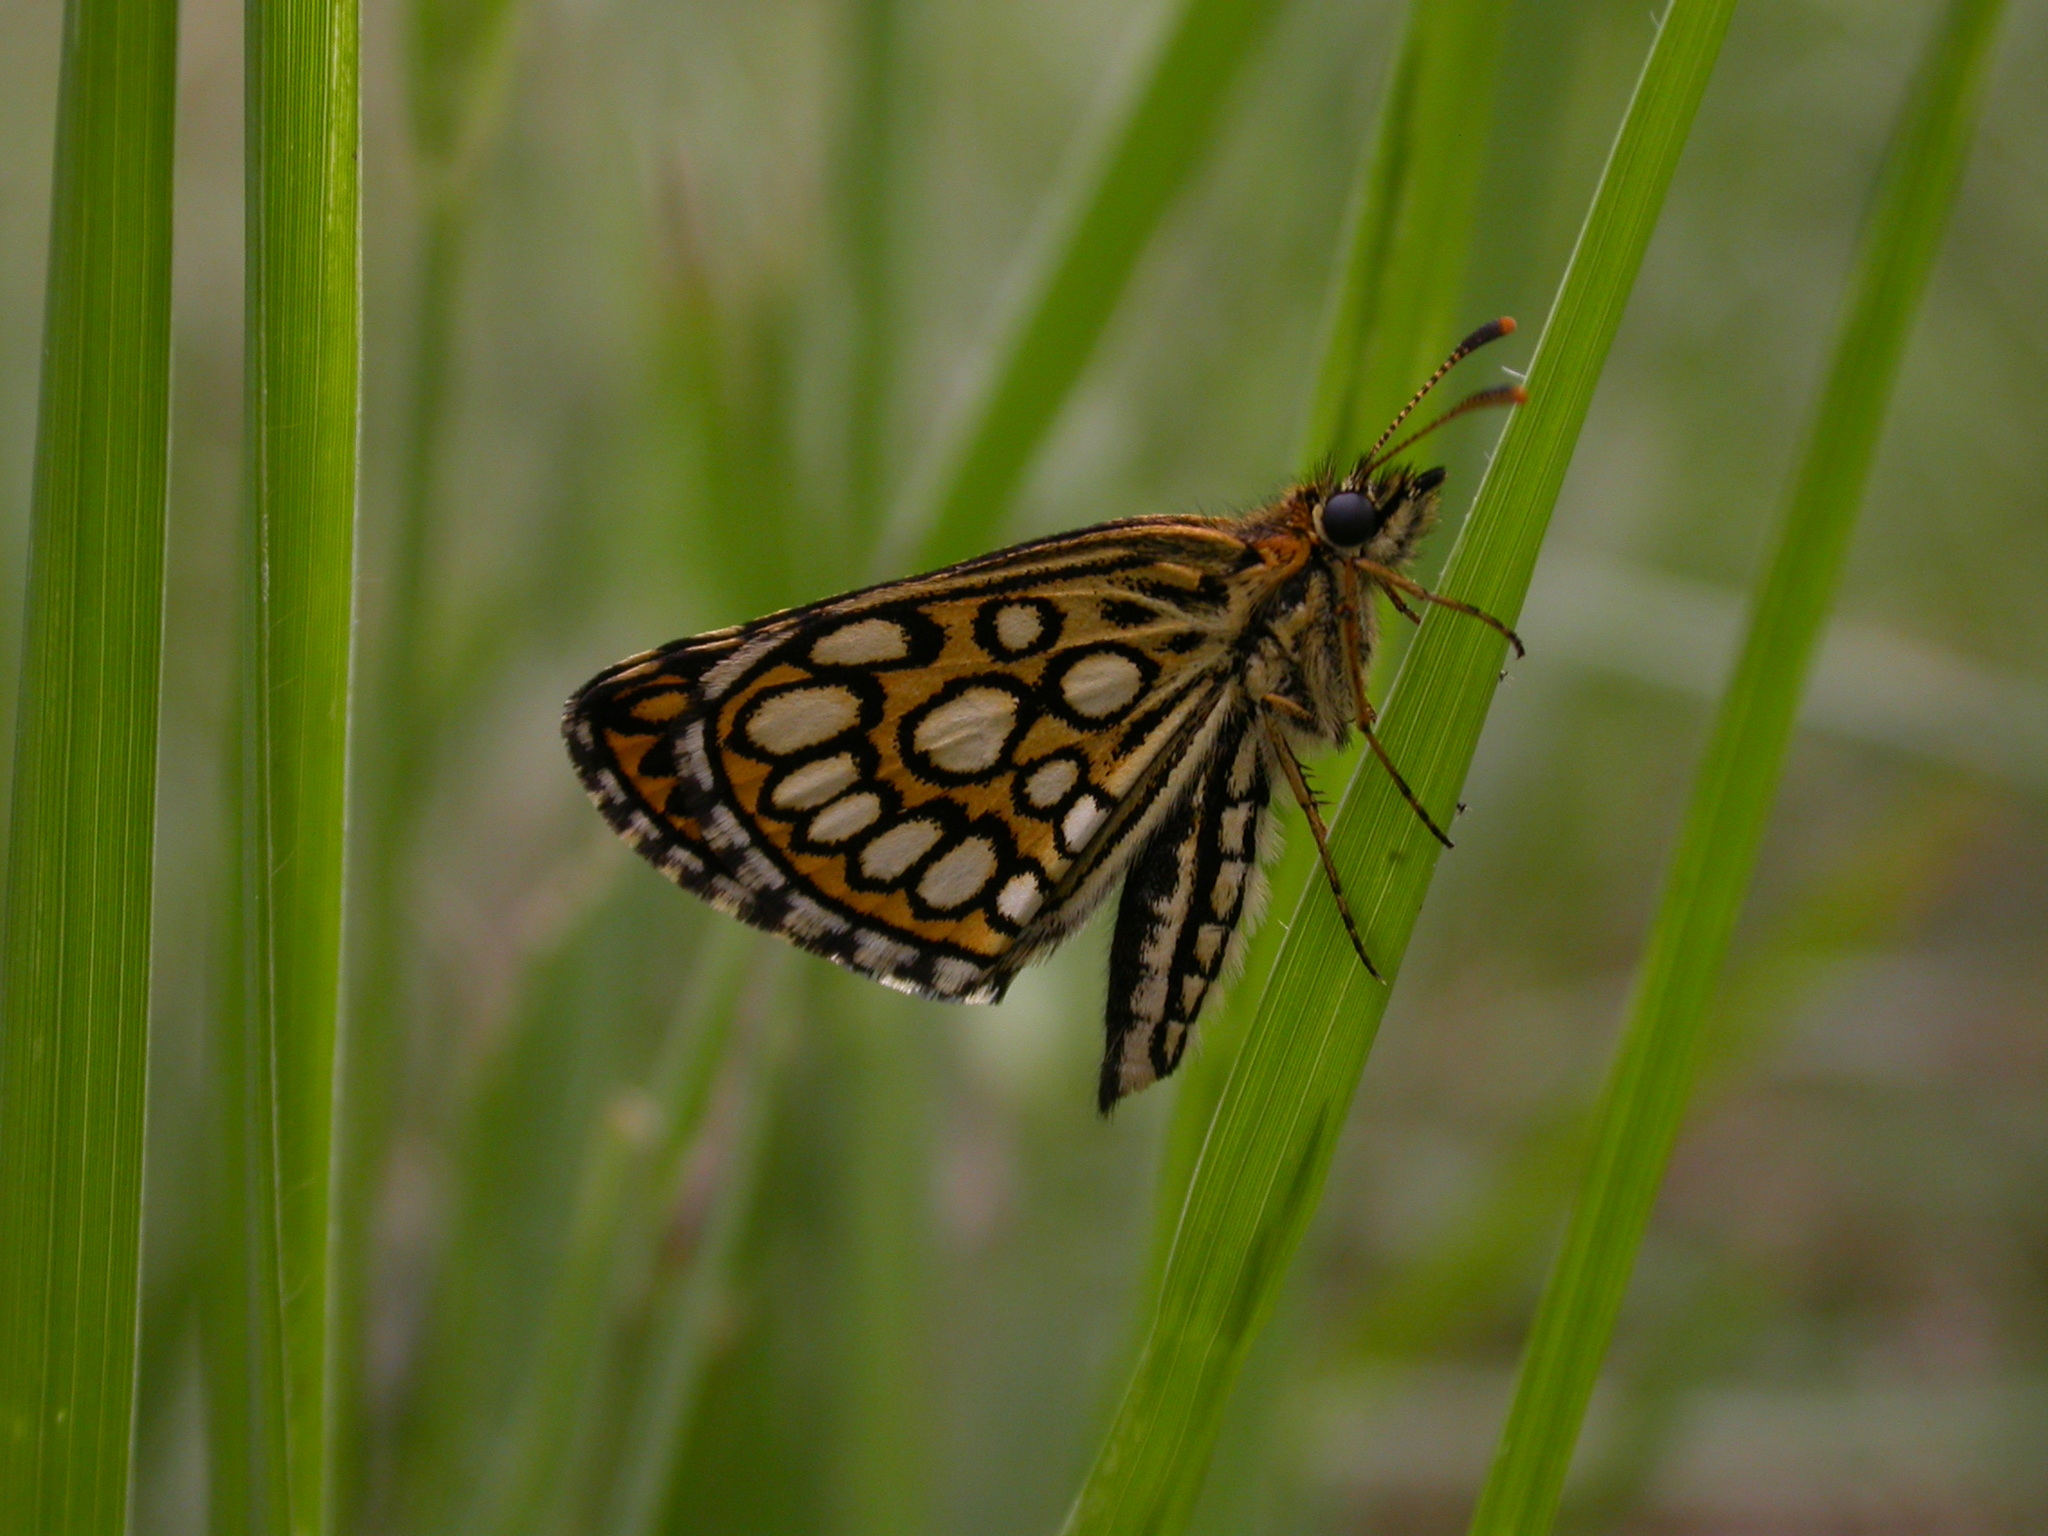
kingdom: Animalia
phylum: Arthropoda
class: Insecta
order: Lepidoptera
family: Hesperiidae
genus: Heteropterus
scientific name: Heteropterus morpheus
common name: Large chequered skipper
